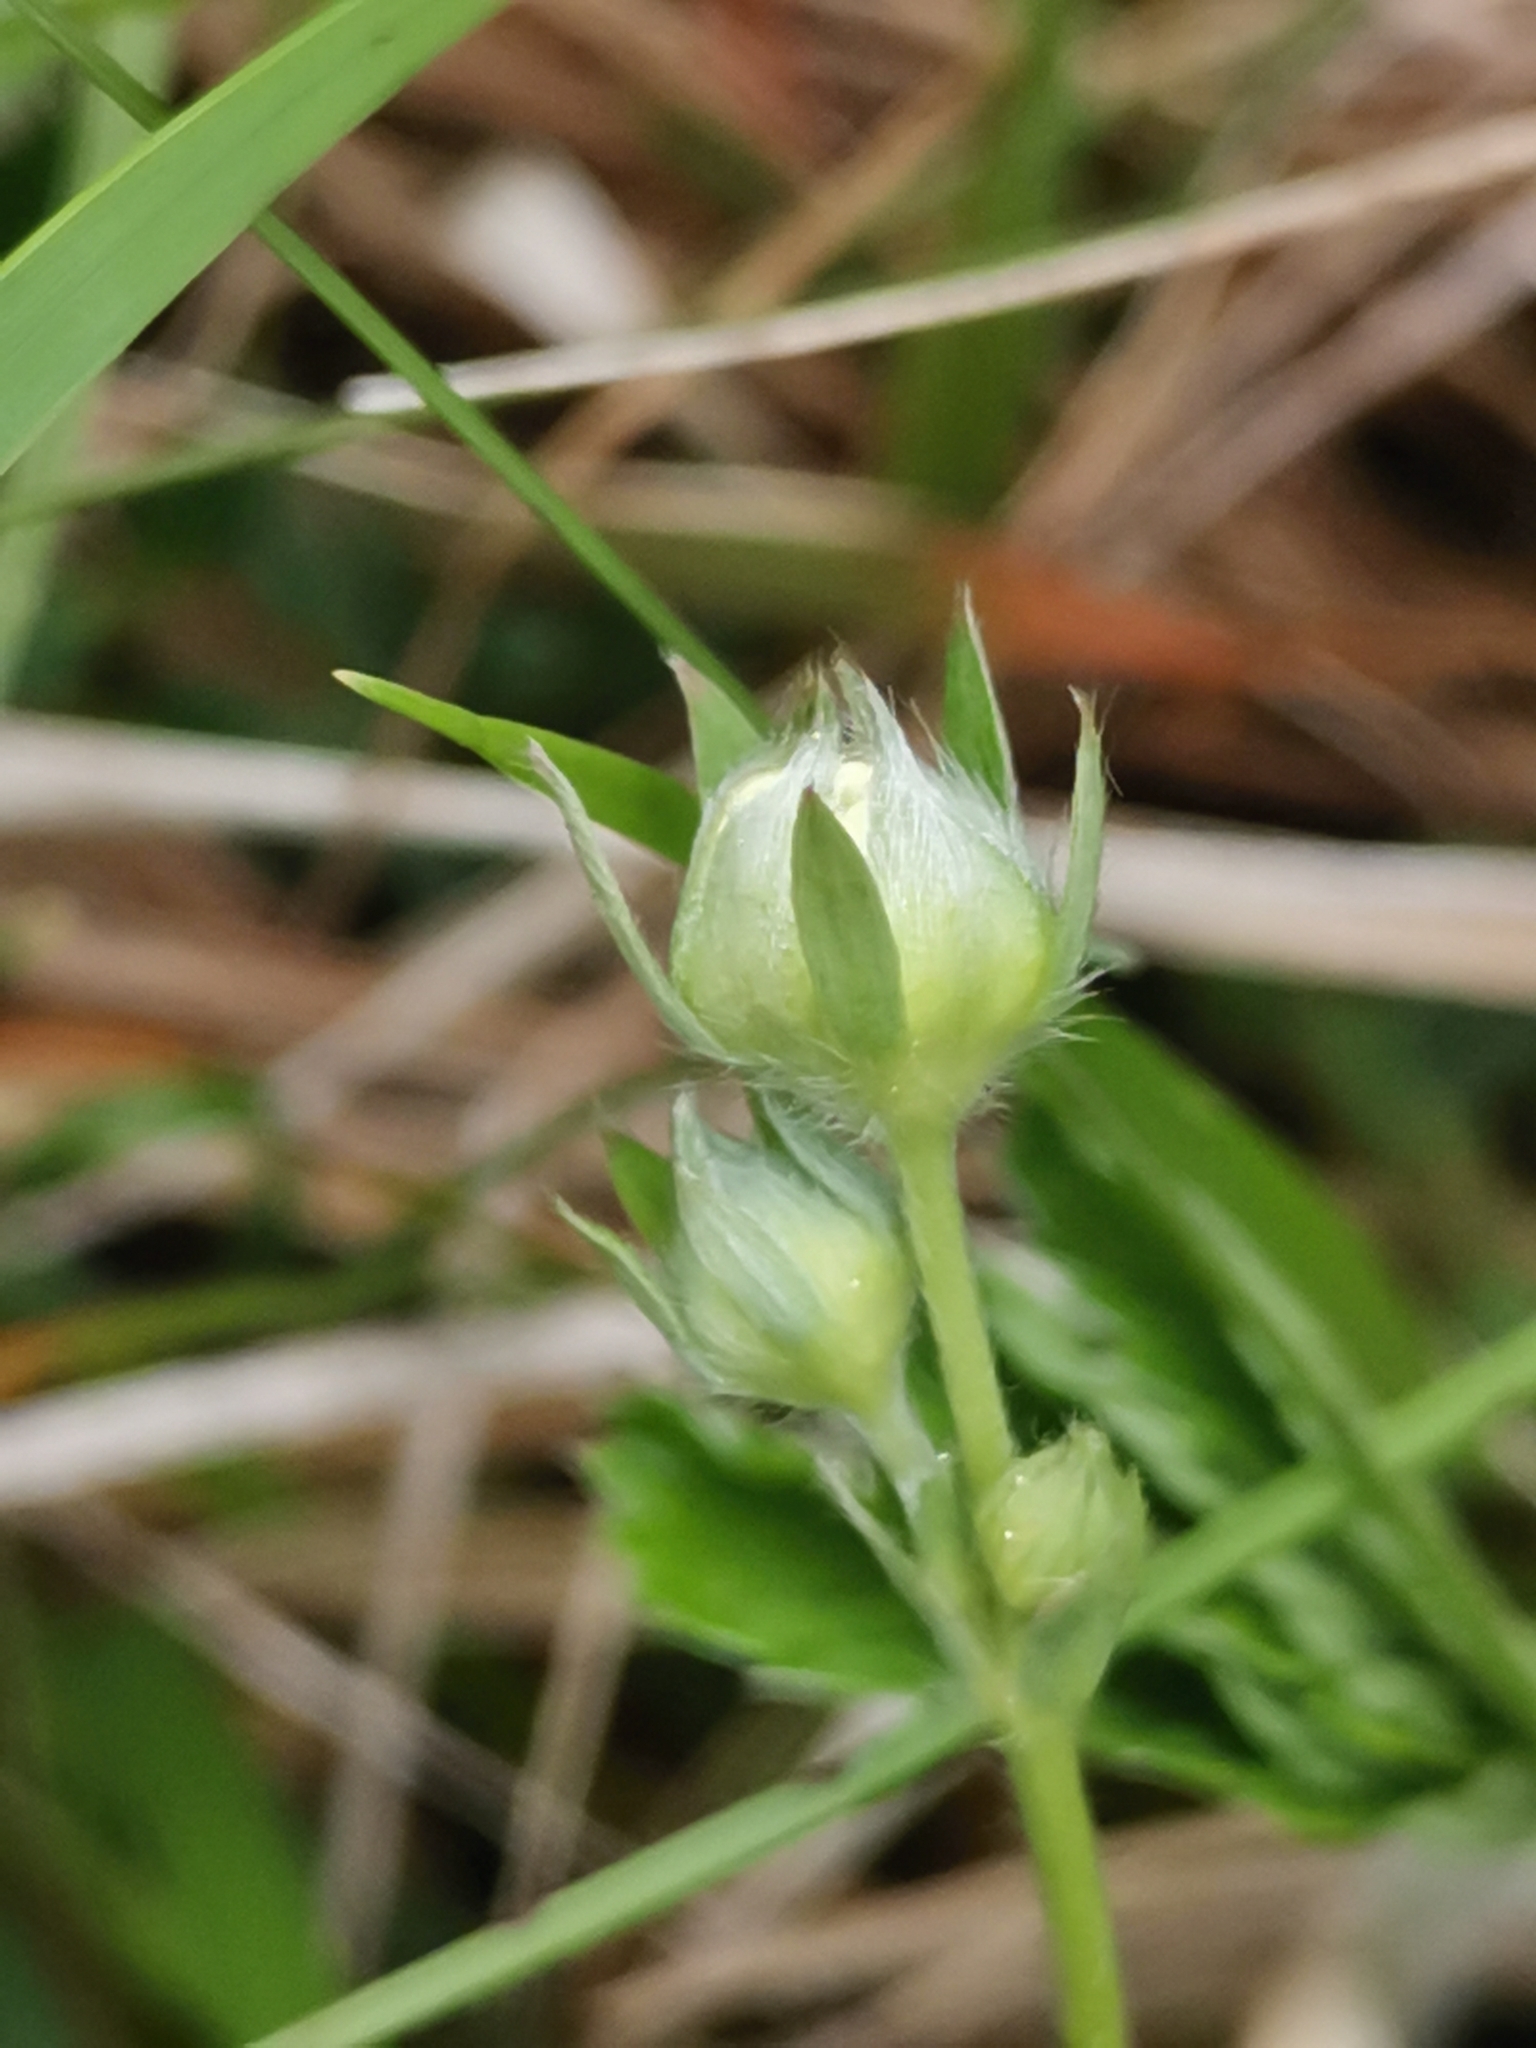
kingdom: Plantae
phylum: Tracheophyta
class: Magnoliopsida
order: Rosales
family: Rosaceae
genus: Fragaria
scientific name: Fragaria vesca
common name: Wild strawberry
